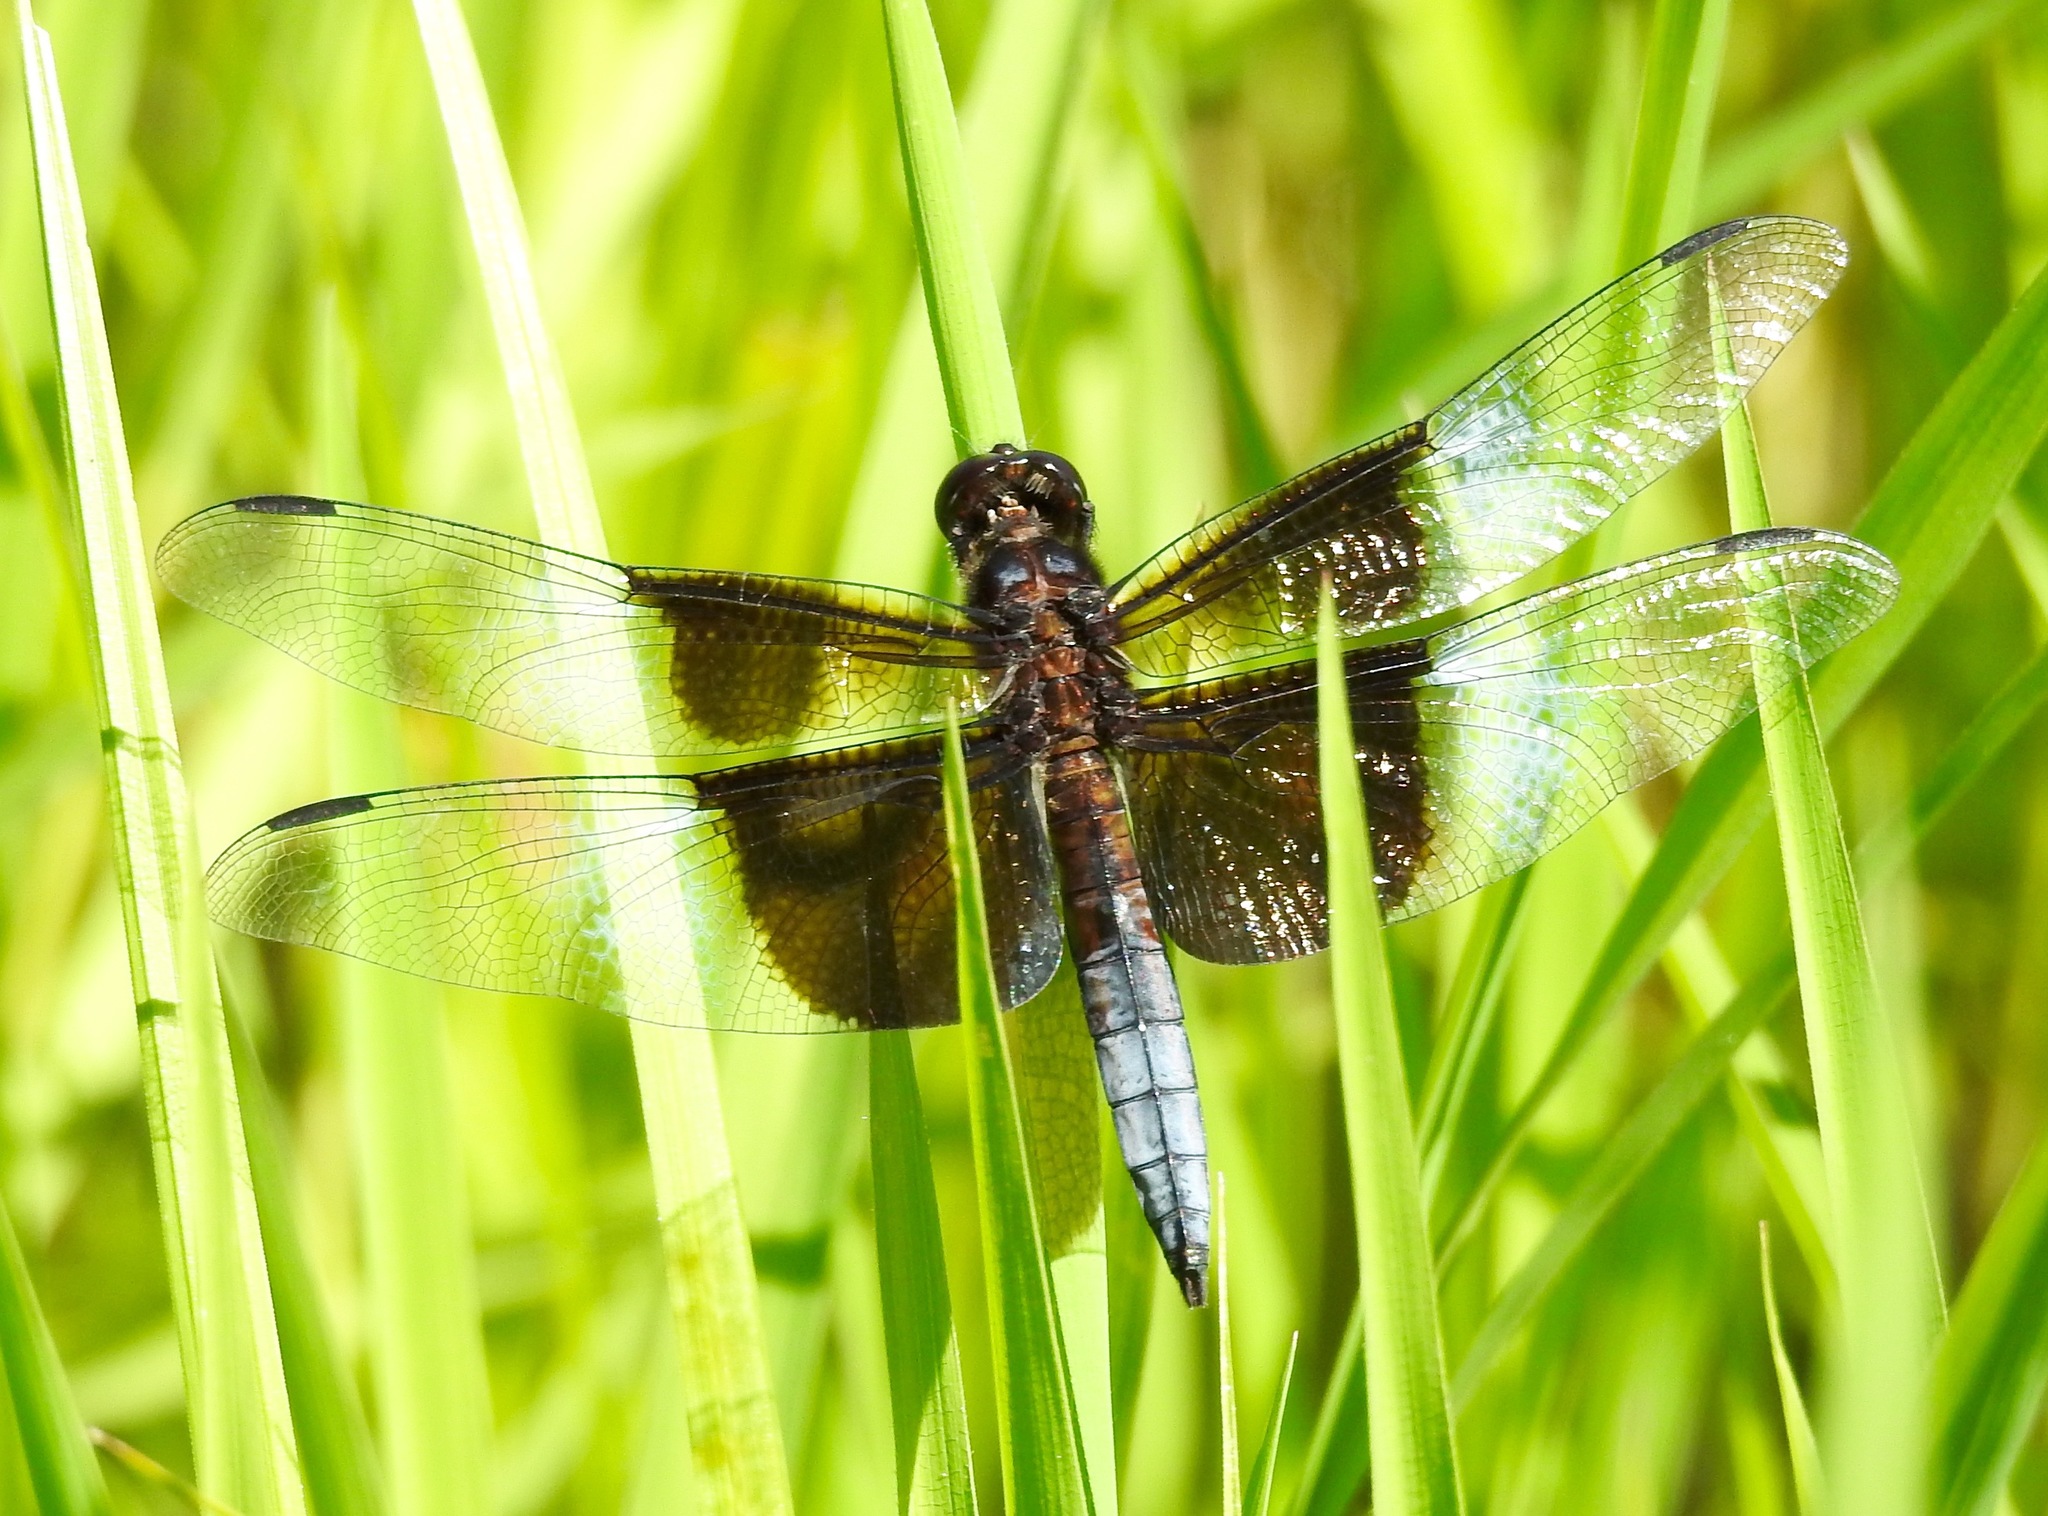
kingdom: Animalia
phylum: Arthropoda
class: Insecta
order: Odonata
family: Libellulidae
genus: Libellula
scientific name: Libellula luctuosa
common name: Widow skimmer
